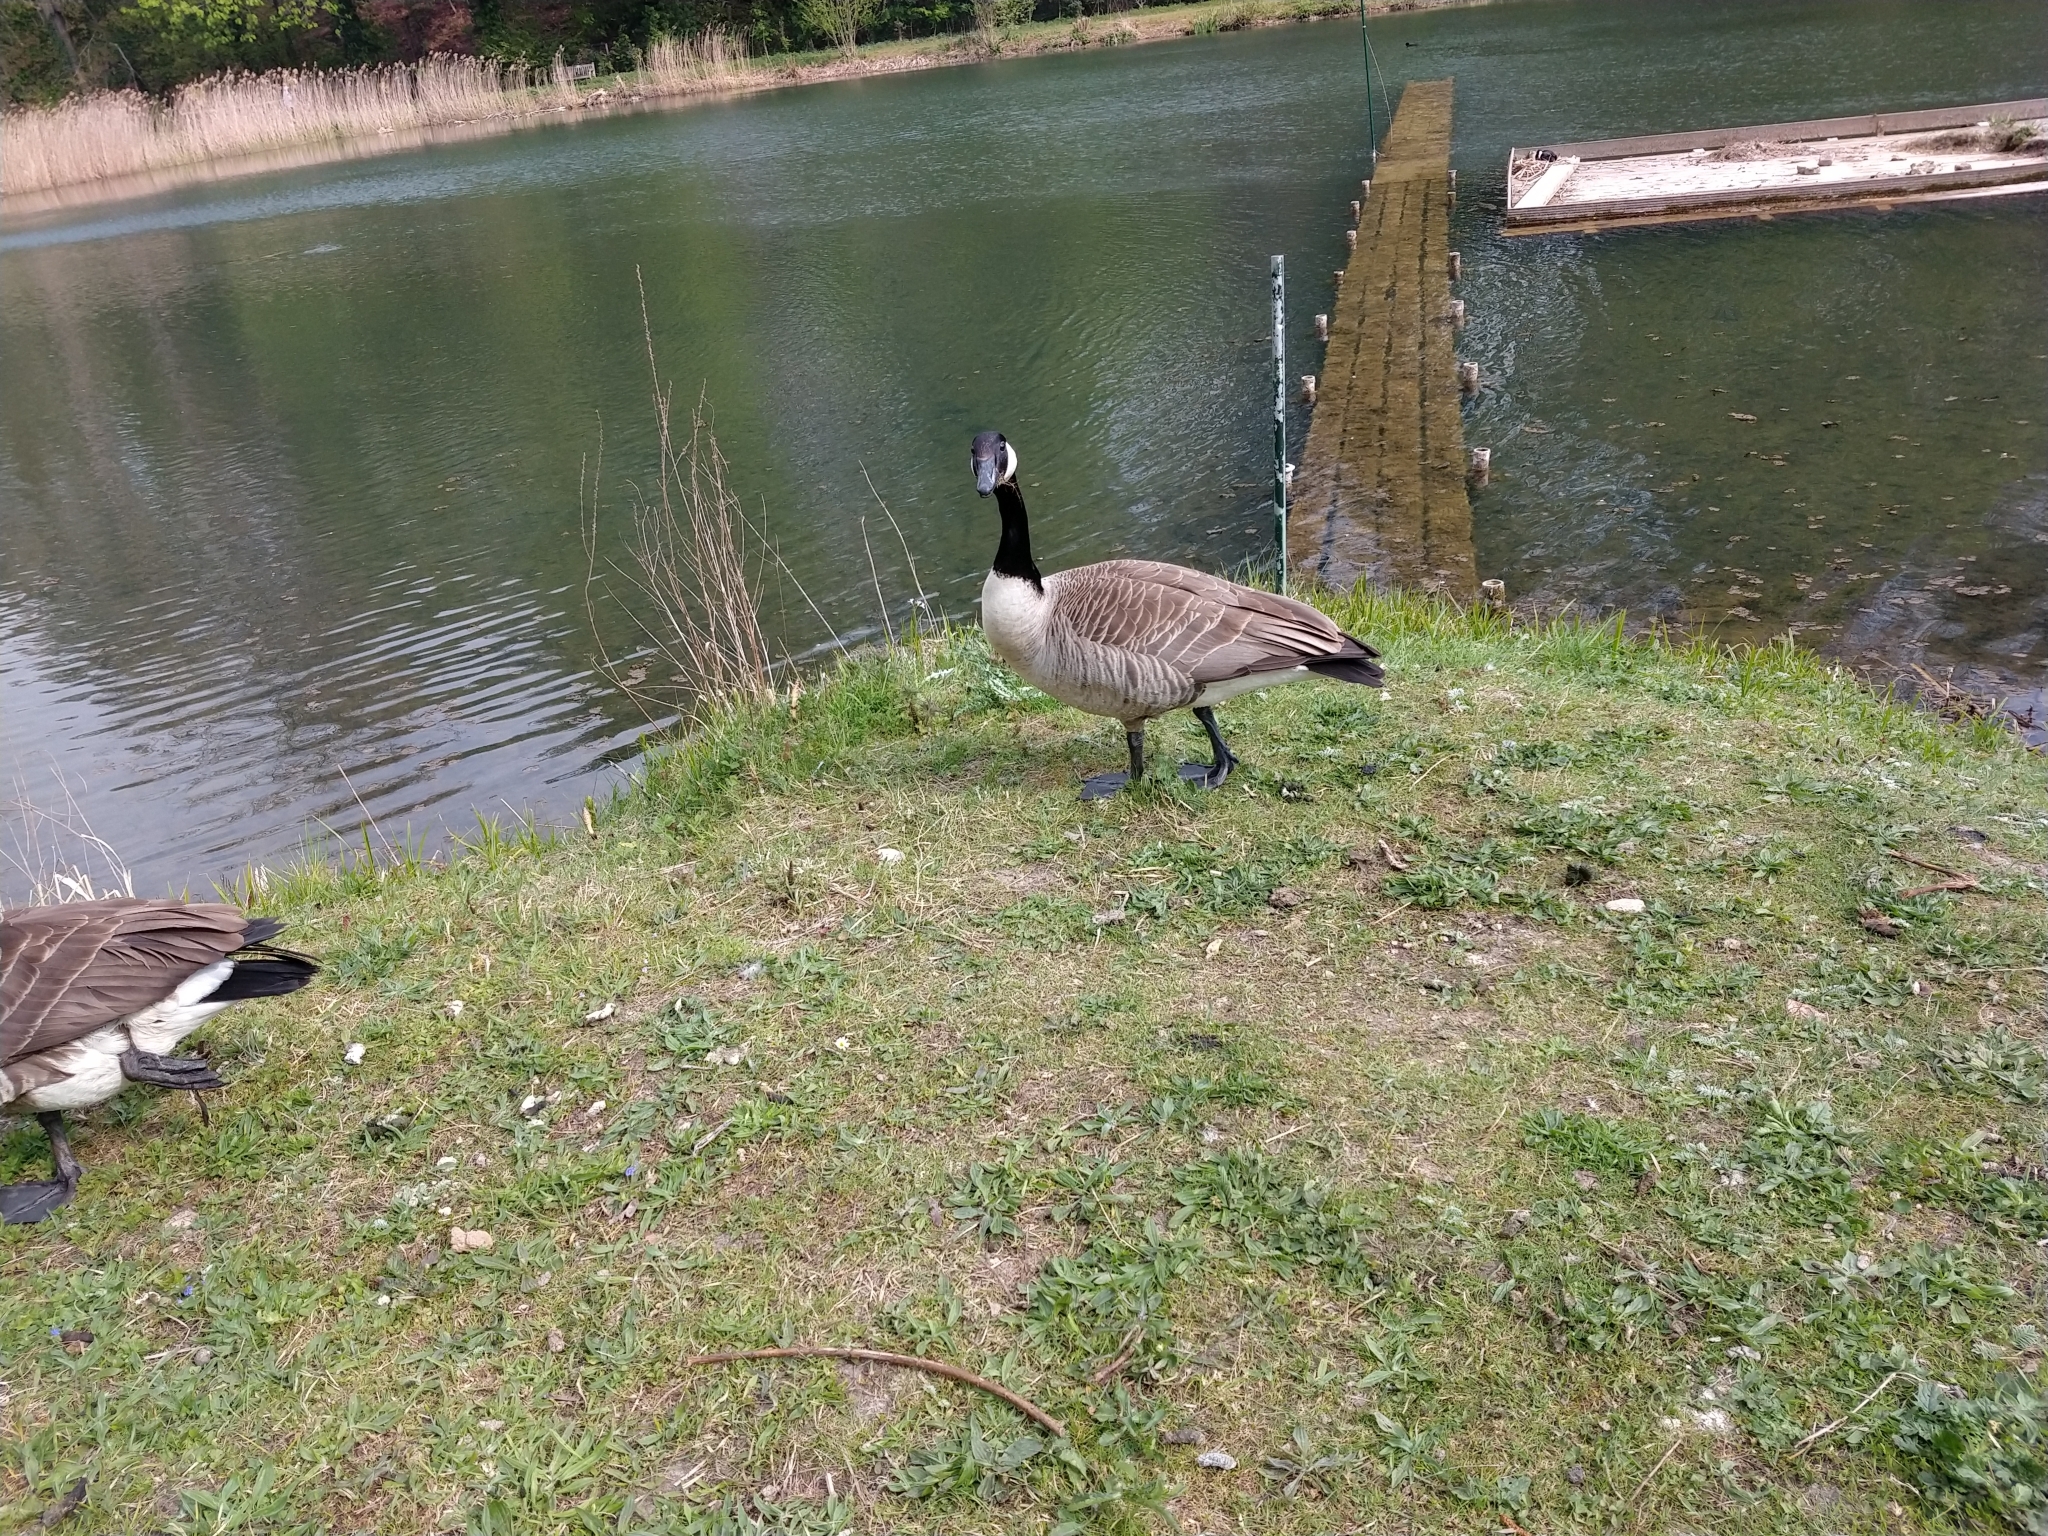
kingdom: Animalia
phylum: Chordata
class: Aves
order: Anseriformes
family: Anatidae
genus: Branta
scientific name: Branta canadensis
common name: Canada goose
